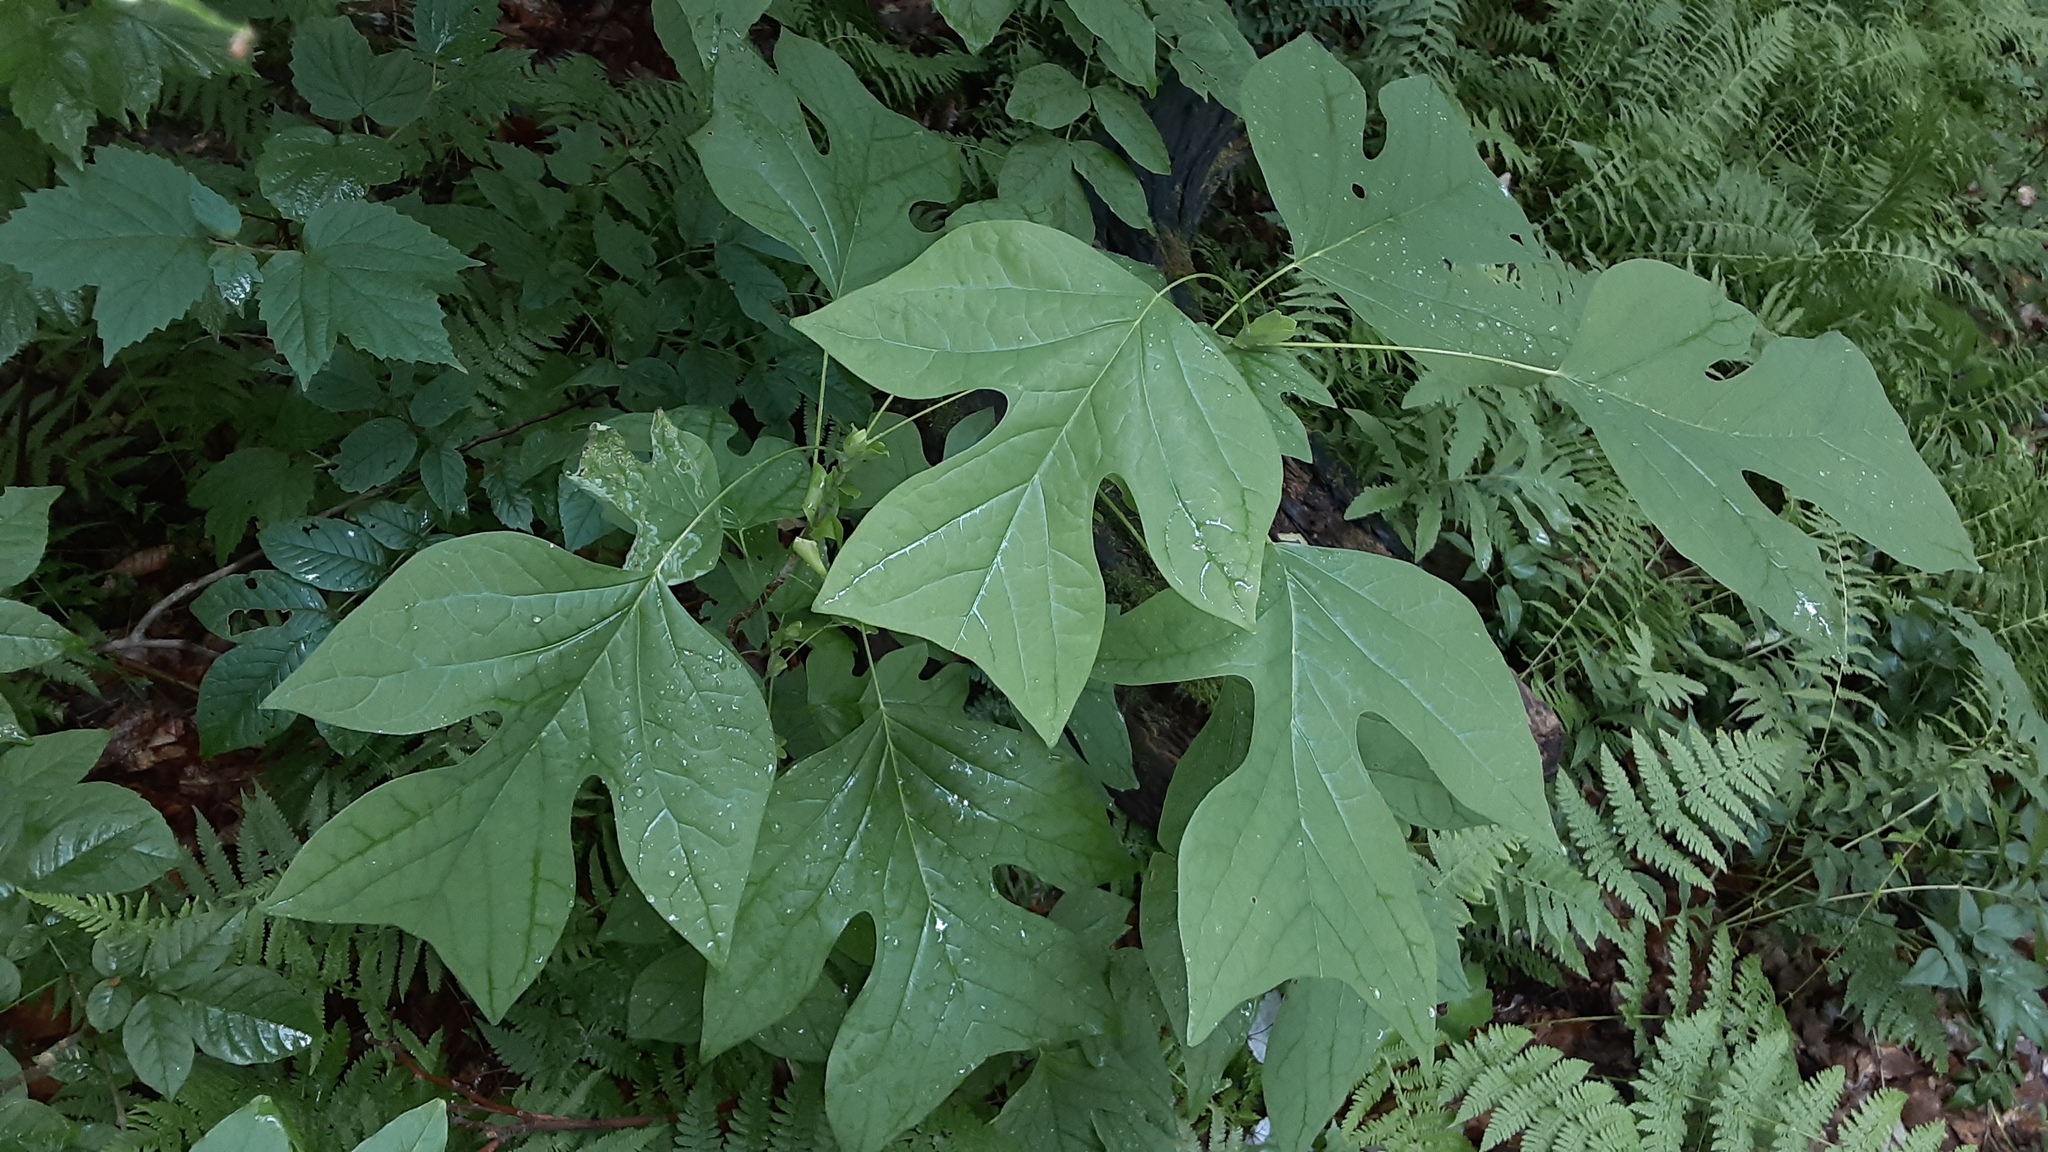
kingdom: Plantae
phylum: Tracheophyta
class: Magnoliopsida
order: Magnoliales
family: Magnoliaceae
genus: Liriodendron
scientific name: Liriodendron tulipifera
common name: Tulip tree
